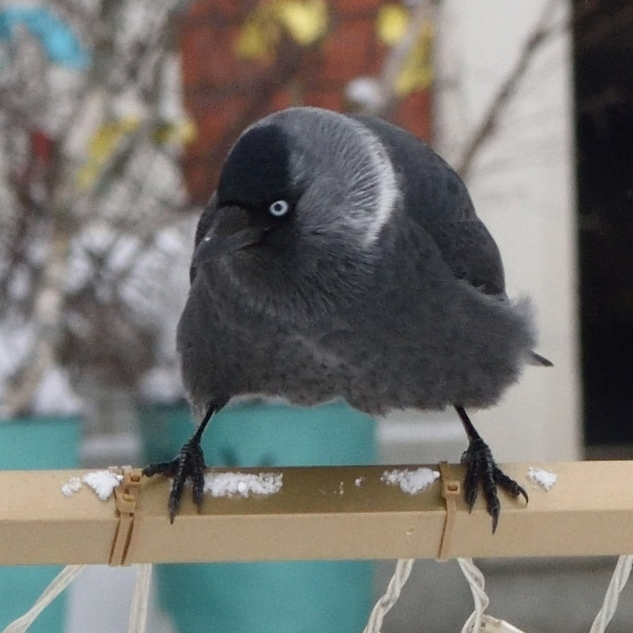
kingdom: Animalia
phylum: Chordata
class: Aves
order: Passeriformes
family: Corvidae
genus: Coloeus
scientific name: Coloeus monedula
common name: Western jackdaw
